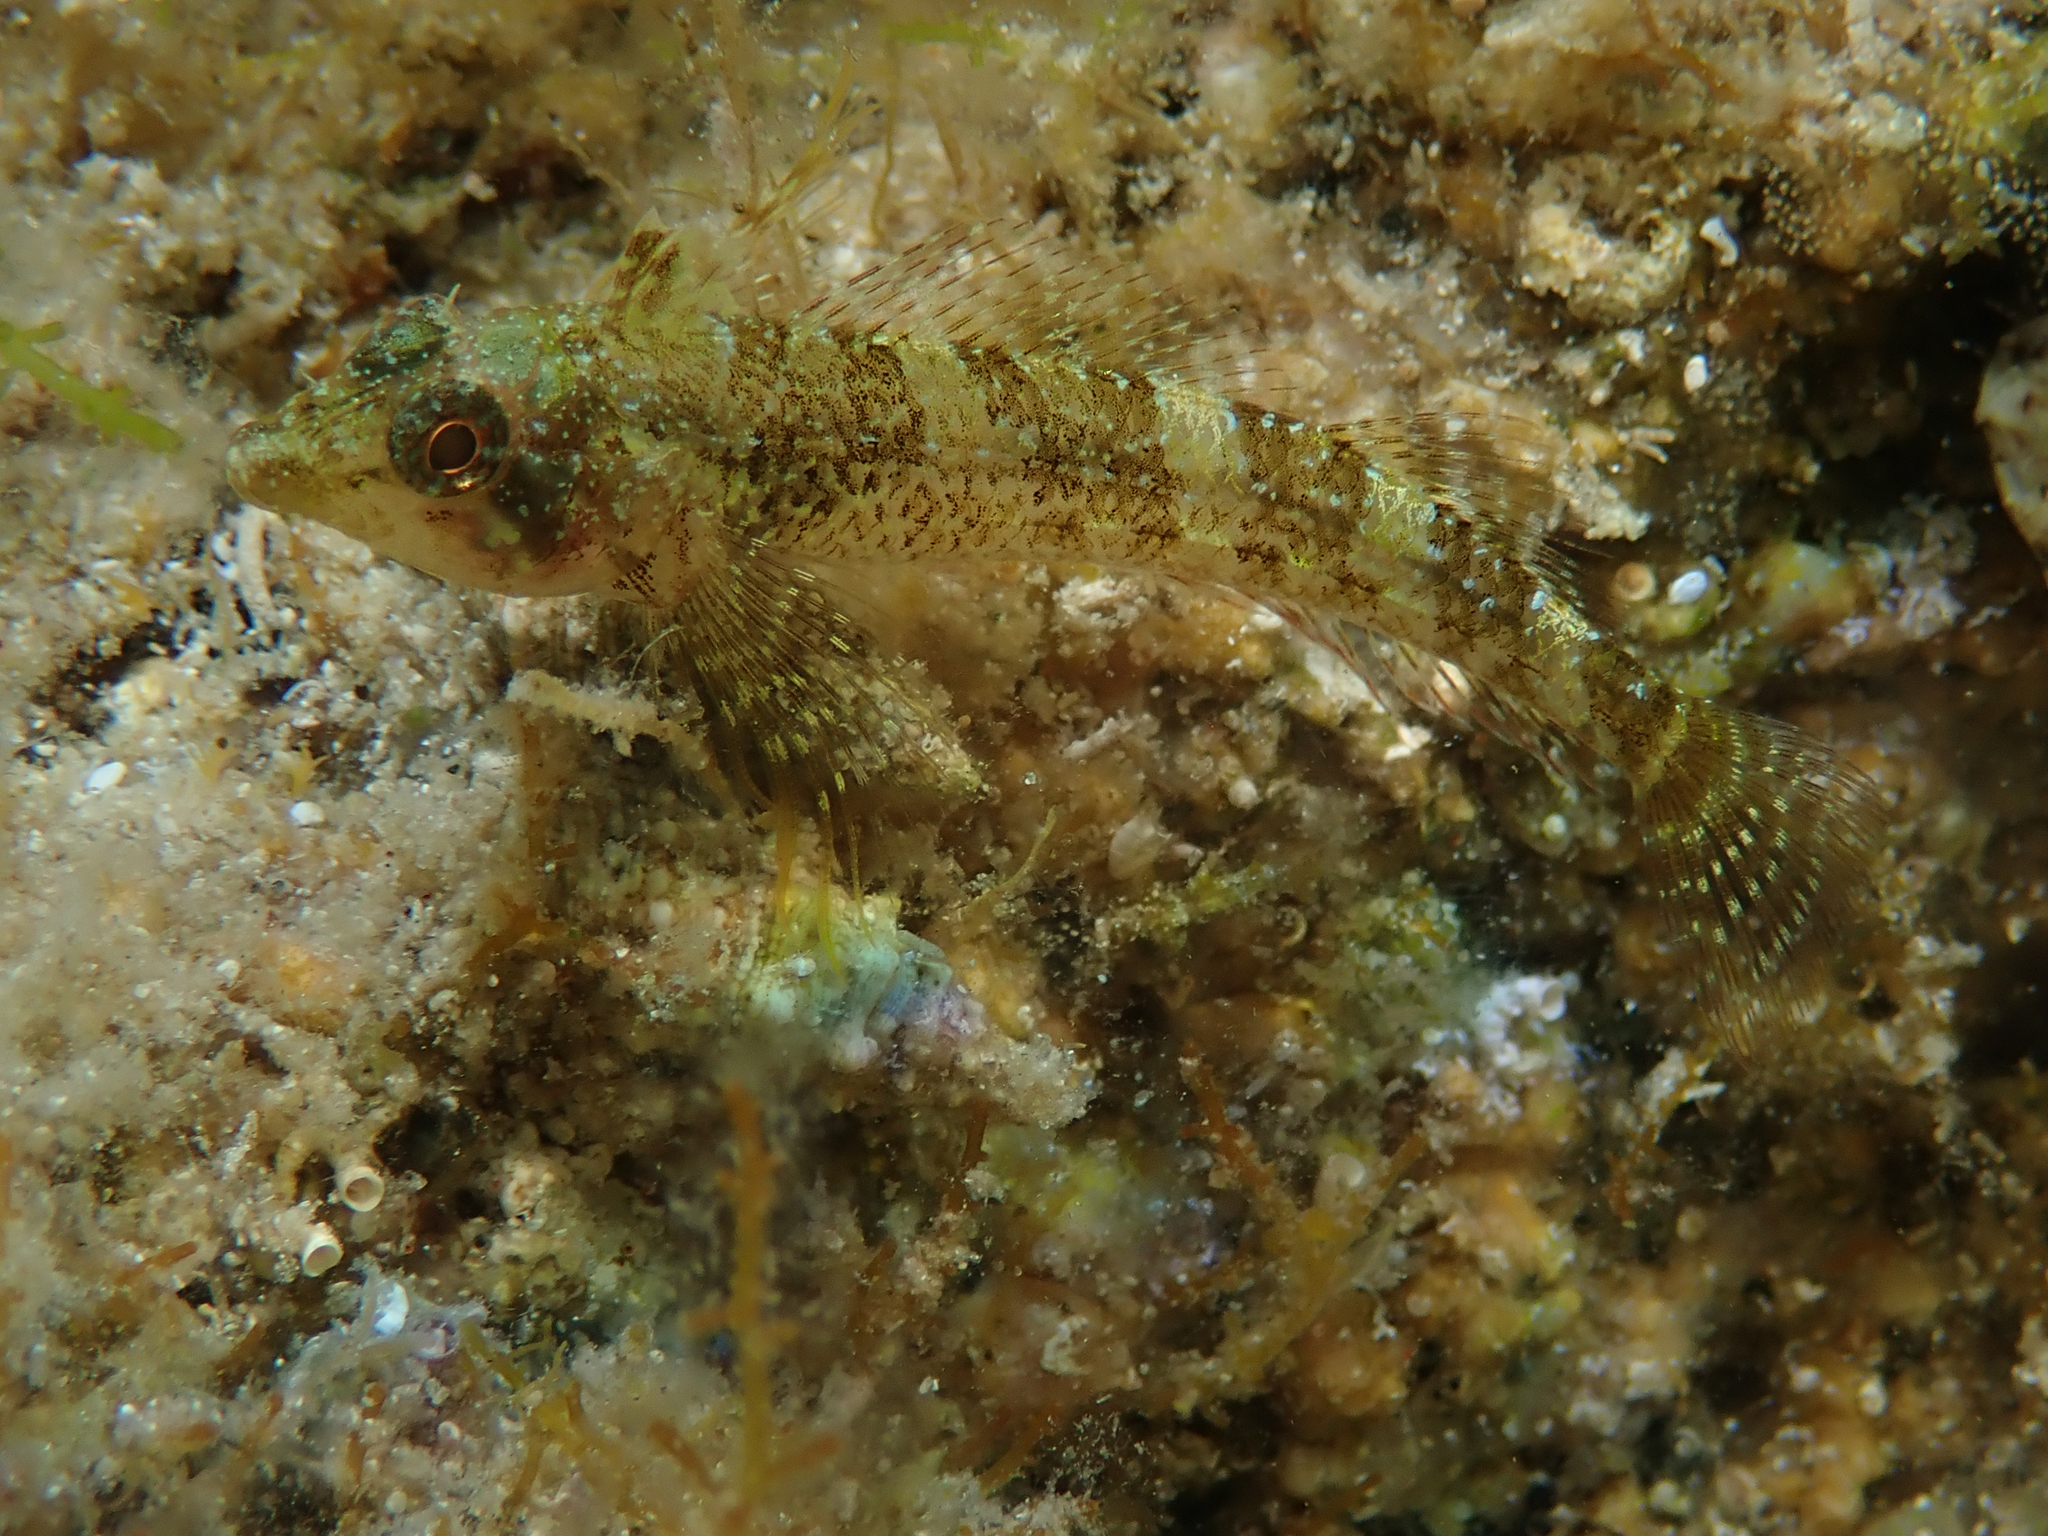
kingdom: Animalia
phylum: Chordata
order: Perciformes
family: Tripterygiidae
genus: Tripterygion
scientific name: Tripterygion tripteronotum
